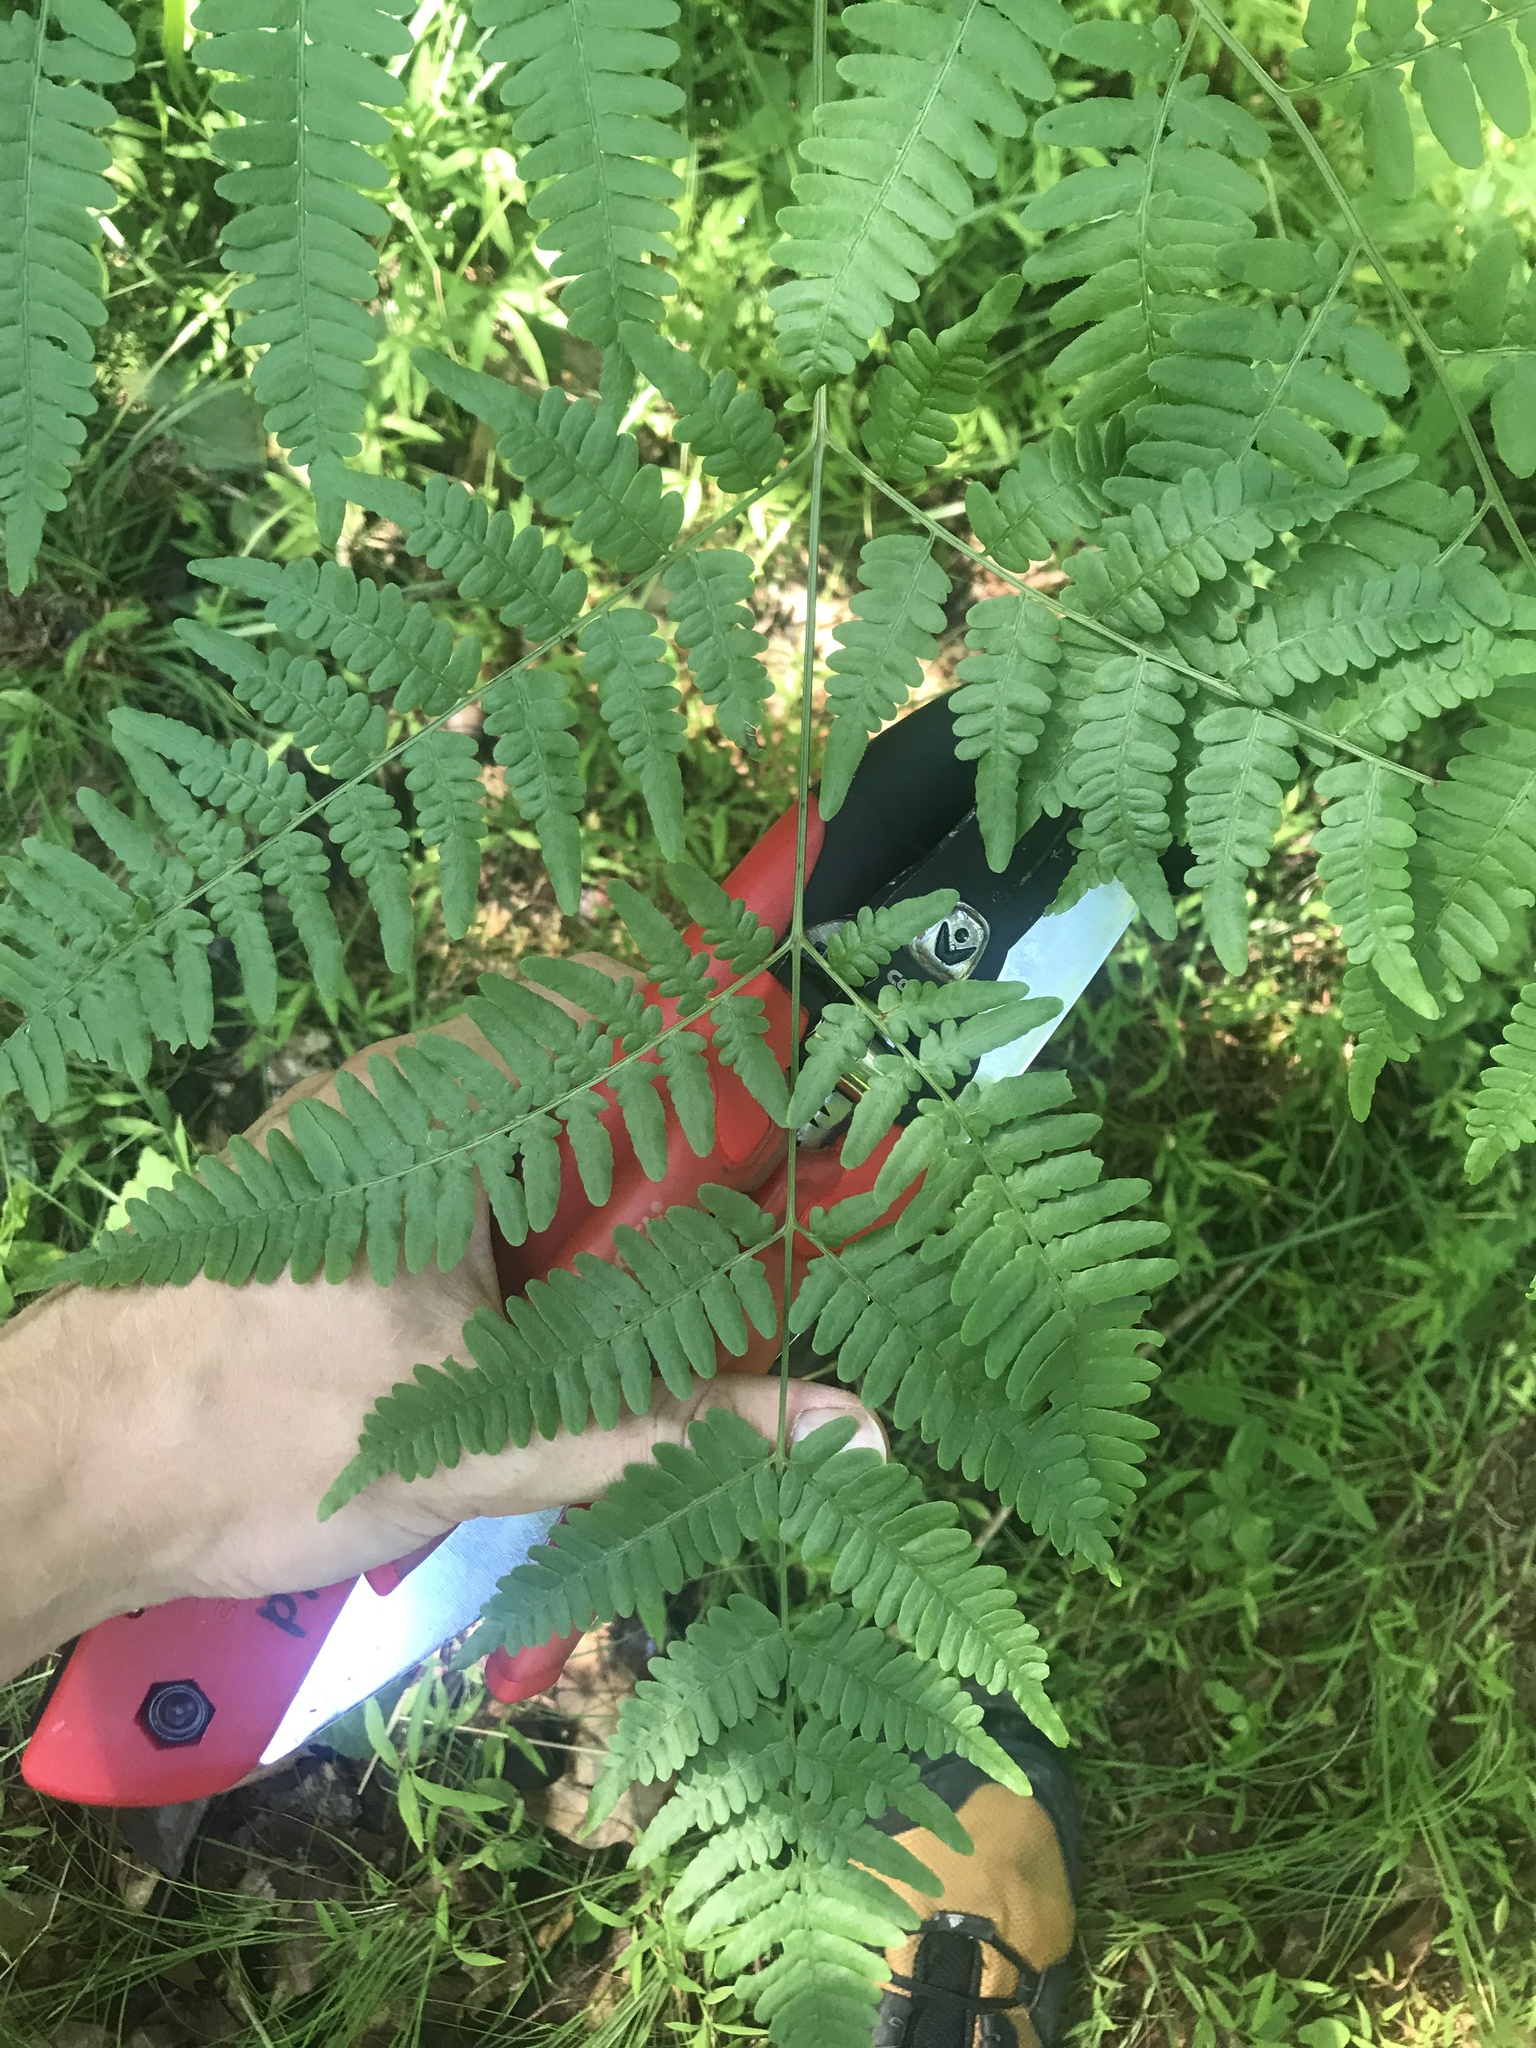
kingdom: Plantae
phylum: Tracheophyta
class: Polypodiopsida
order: Polypodiales
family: Dennstaedtiaceae
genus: Pteridium
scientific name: Pteridium aquilinum
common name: Bracken
